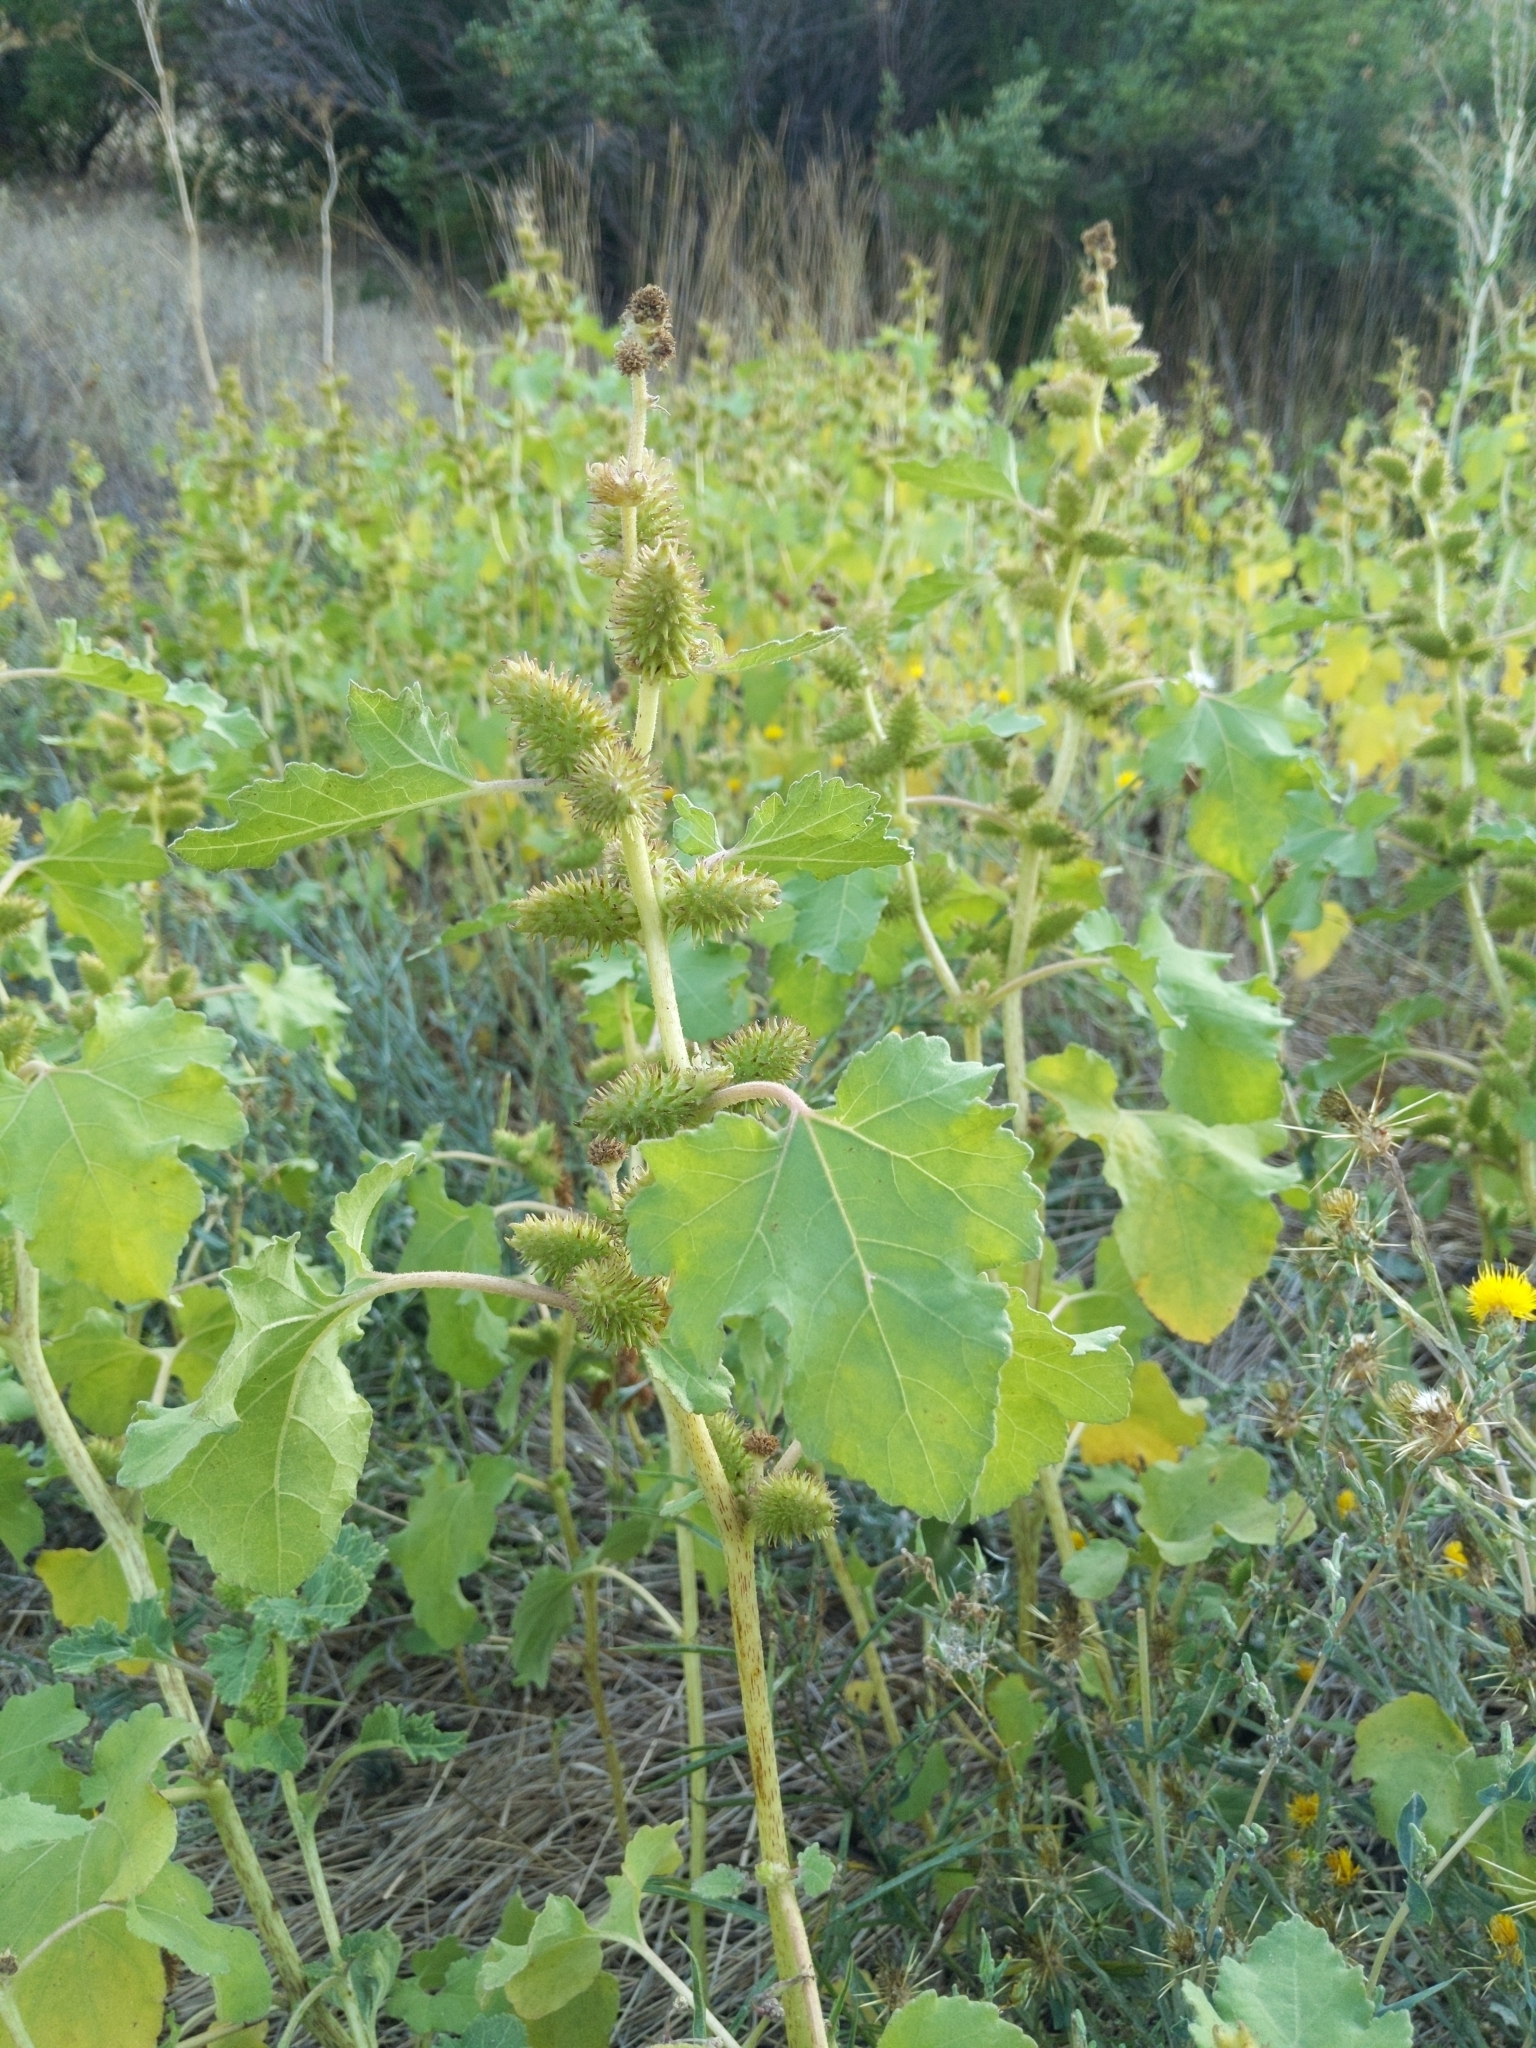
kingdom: Plantae
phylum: Tracheophyta
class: Magnoliopsida
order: Asterales
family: Asteraceae
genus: Xanthium
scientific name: Xanthium strumarium
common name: Rough cocklebur
